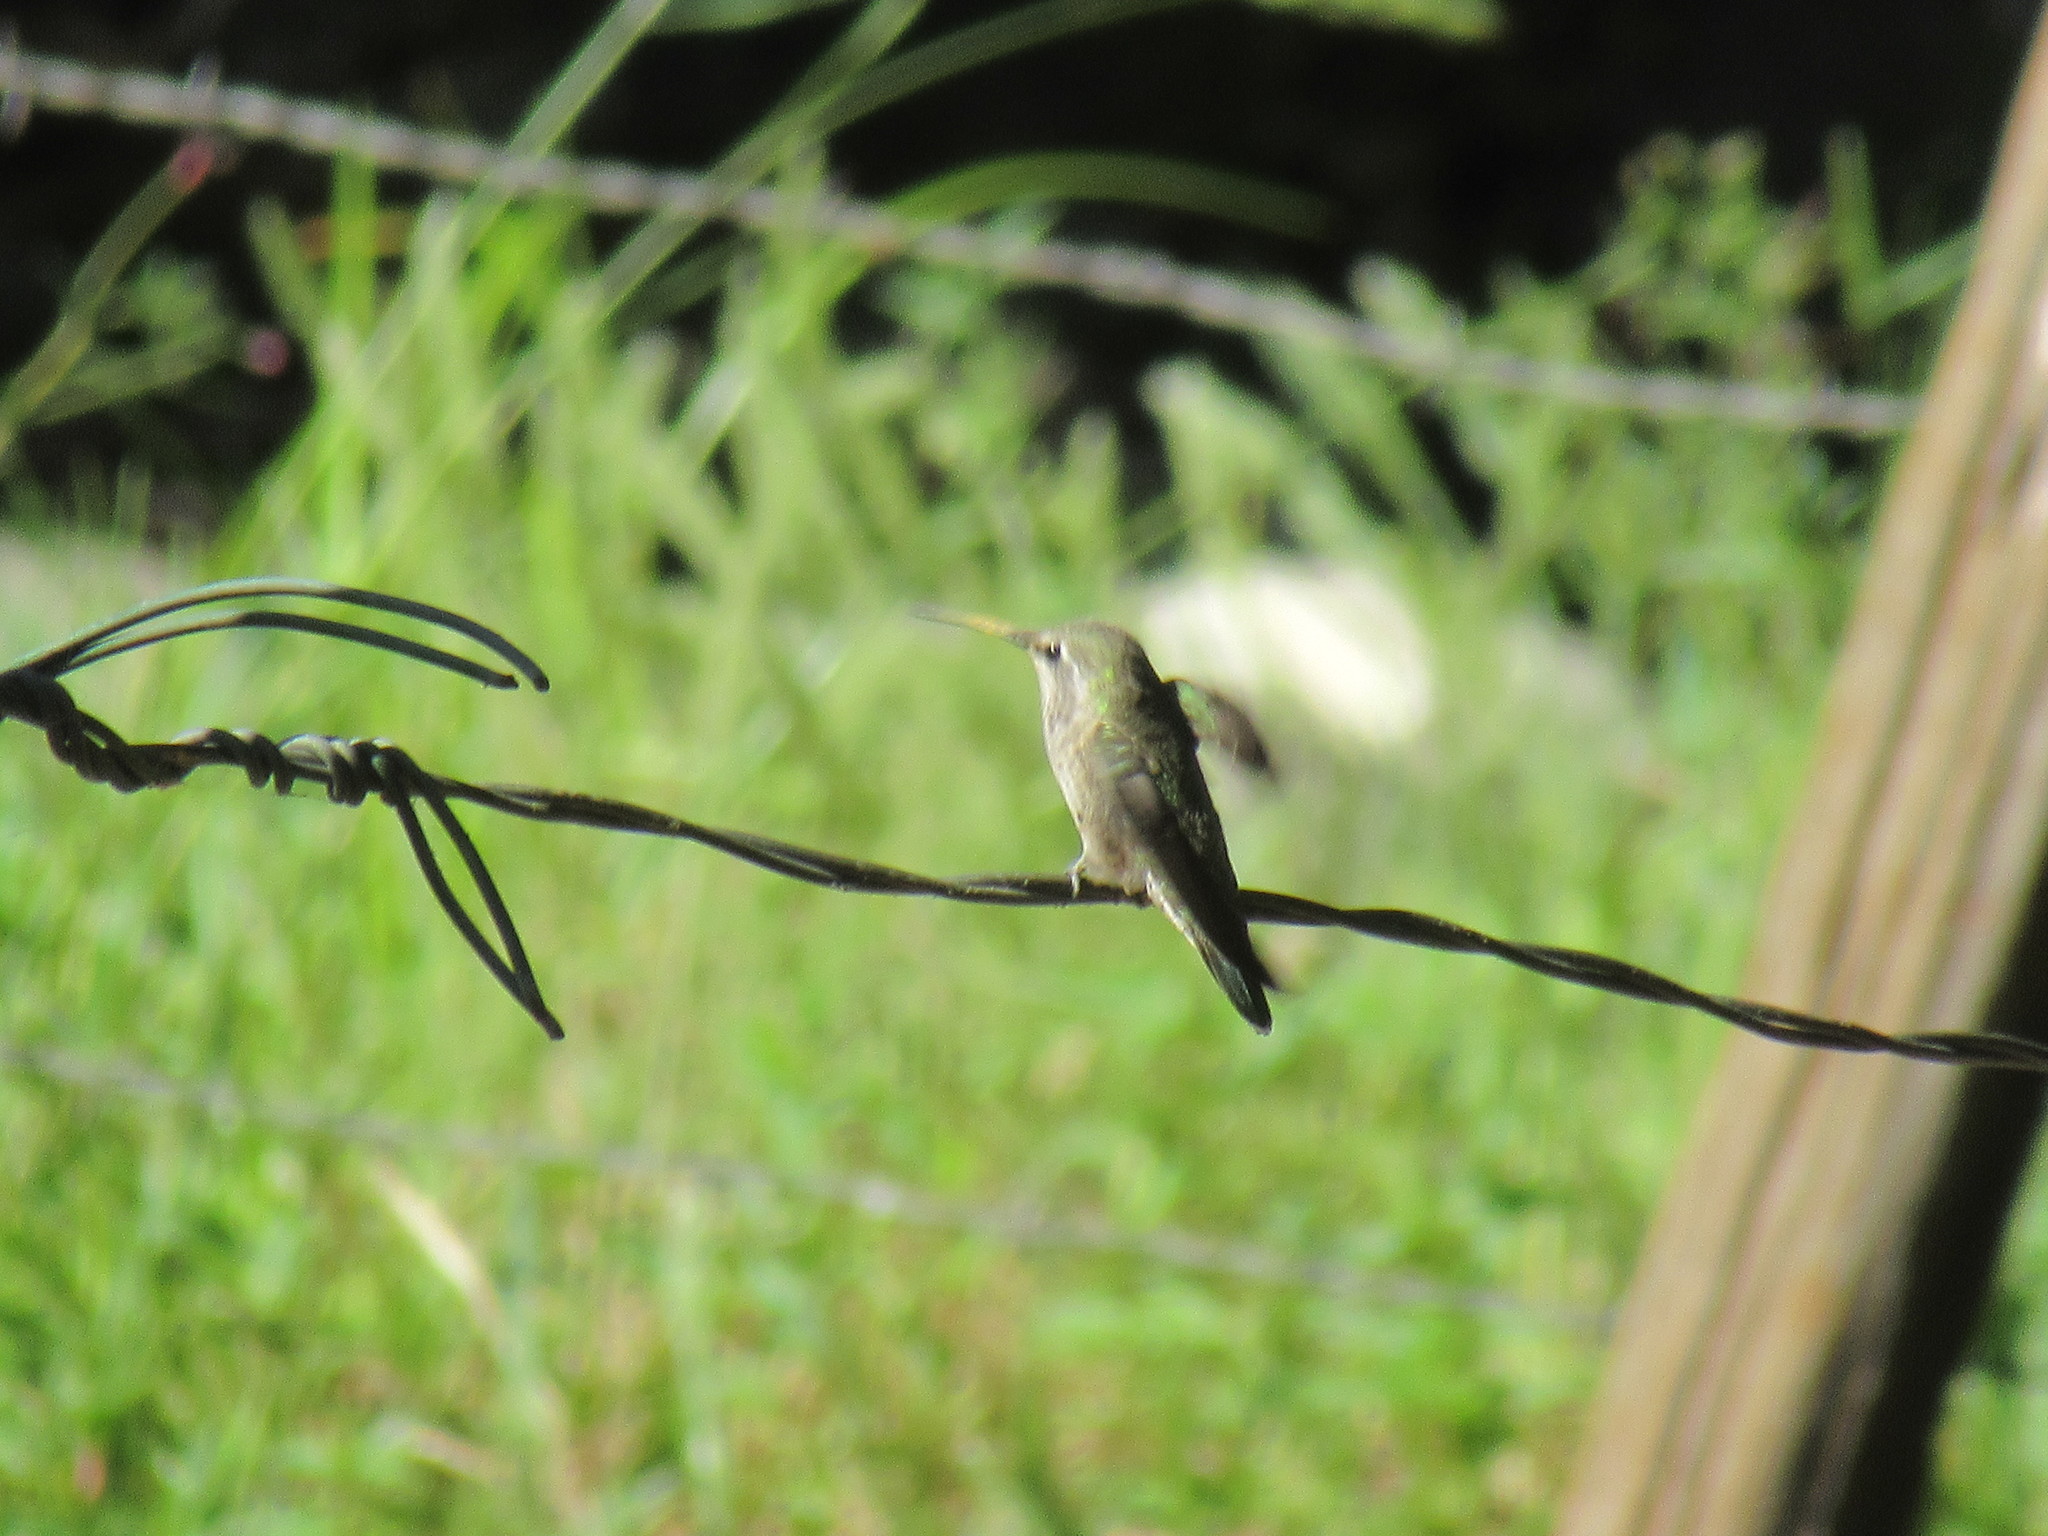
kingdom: Animalia
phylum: Chordata
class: Aves
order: Apodiformes
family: Trochilidae
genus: Calypte
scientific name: Calypte anna
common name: Anna's hummingbird
